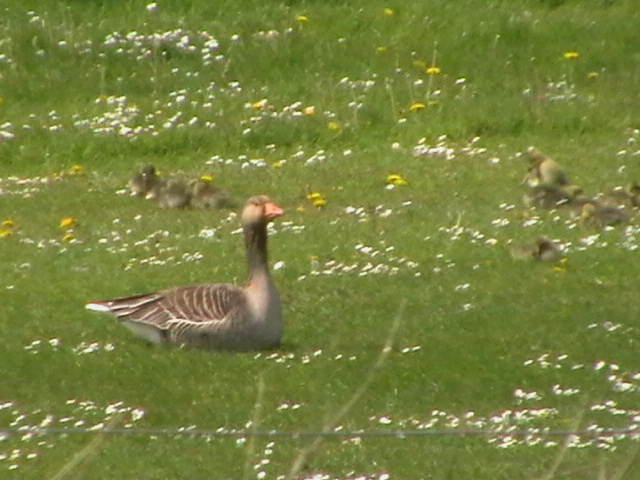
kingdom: Animalia
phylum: Chordata
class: Aves
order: Anseriformes
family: Anatidae
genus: Anser
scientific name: Anser anser
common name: Greylag goose
